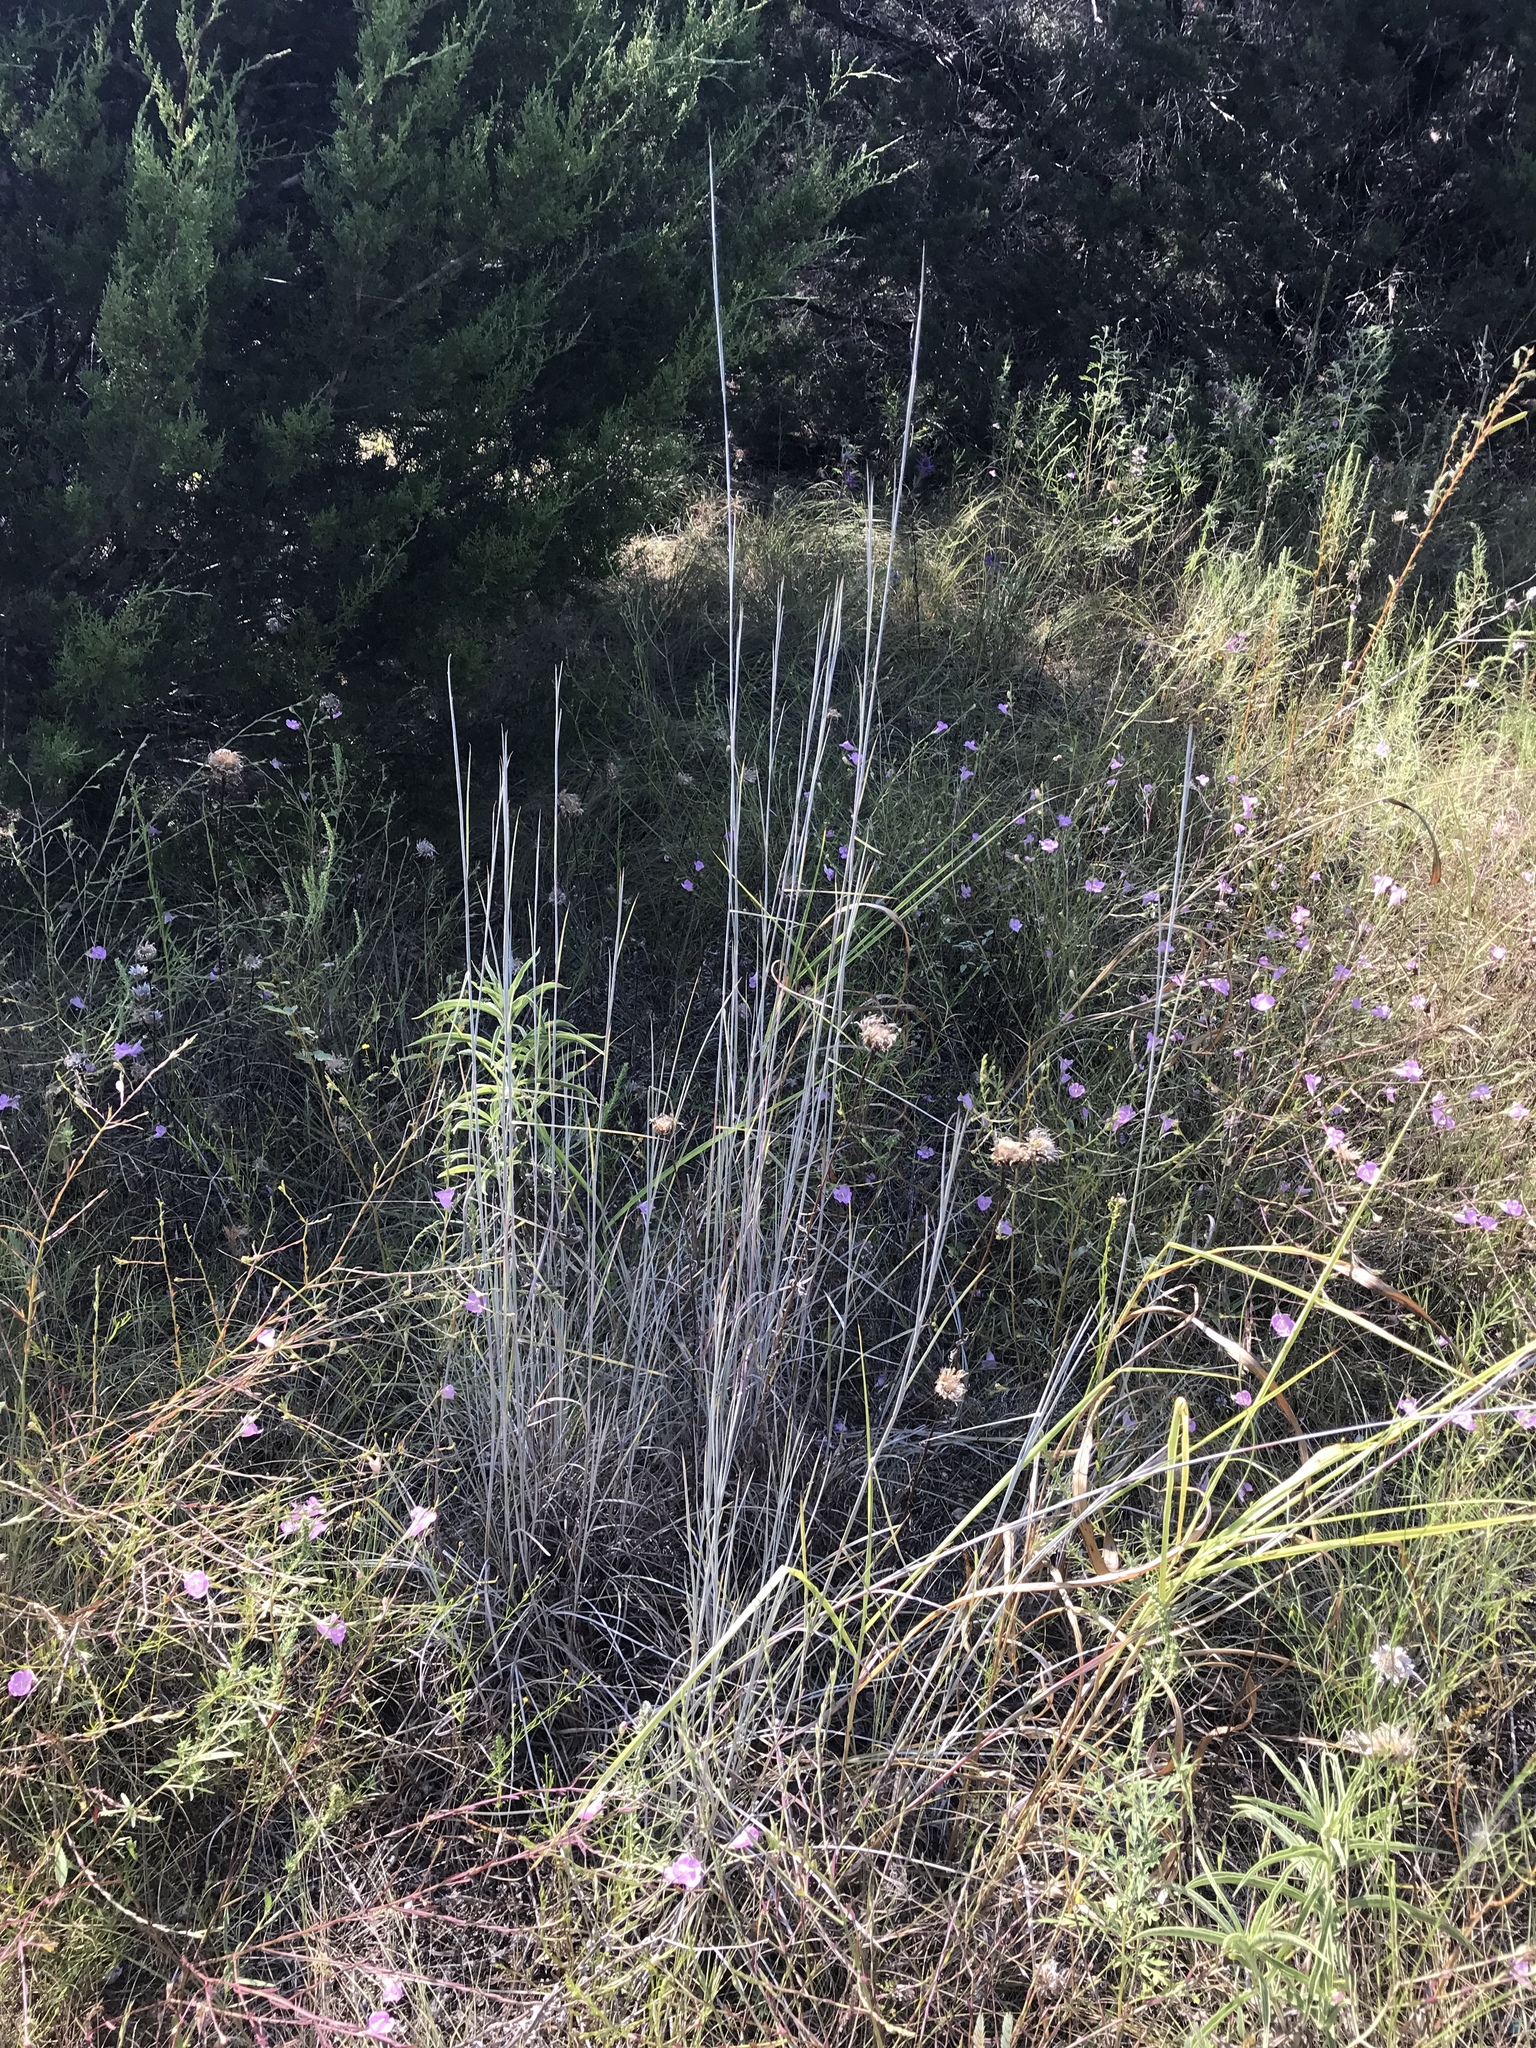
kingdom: Plantae
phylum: Tracheophyta
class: Liliopsida
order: Poales
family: Poaceae
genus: Schizachyrium
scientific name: Schizachyrium scoparium
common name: Little bluestem
